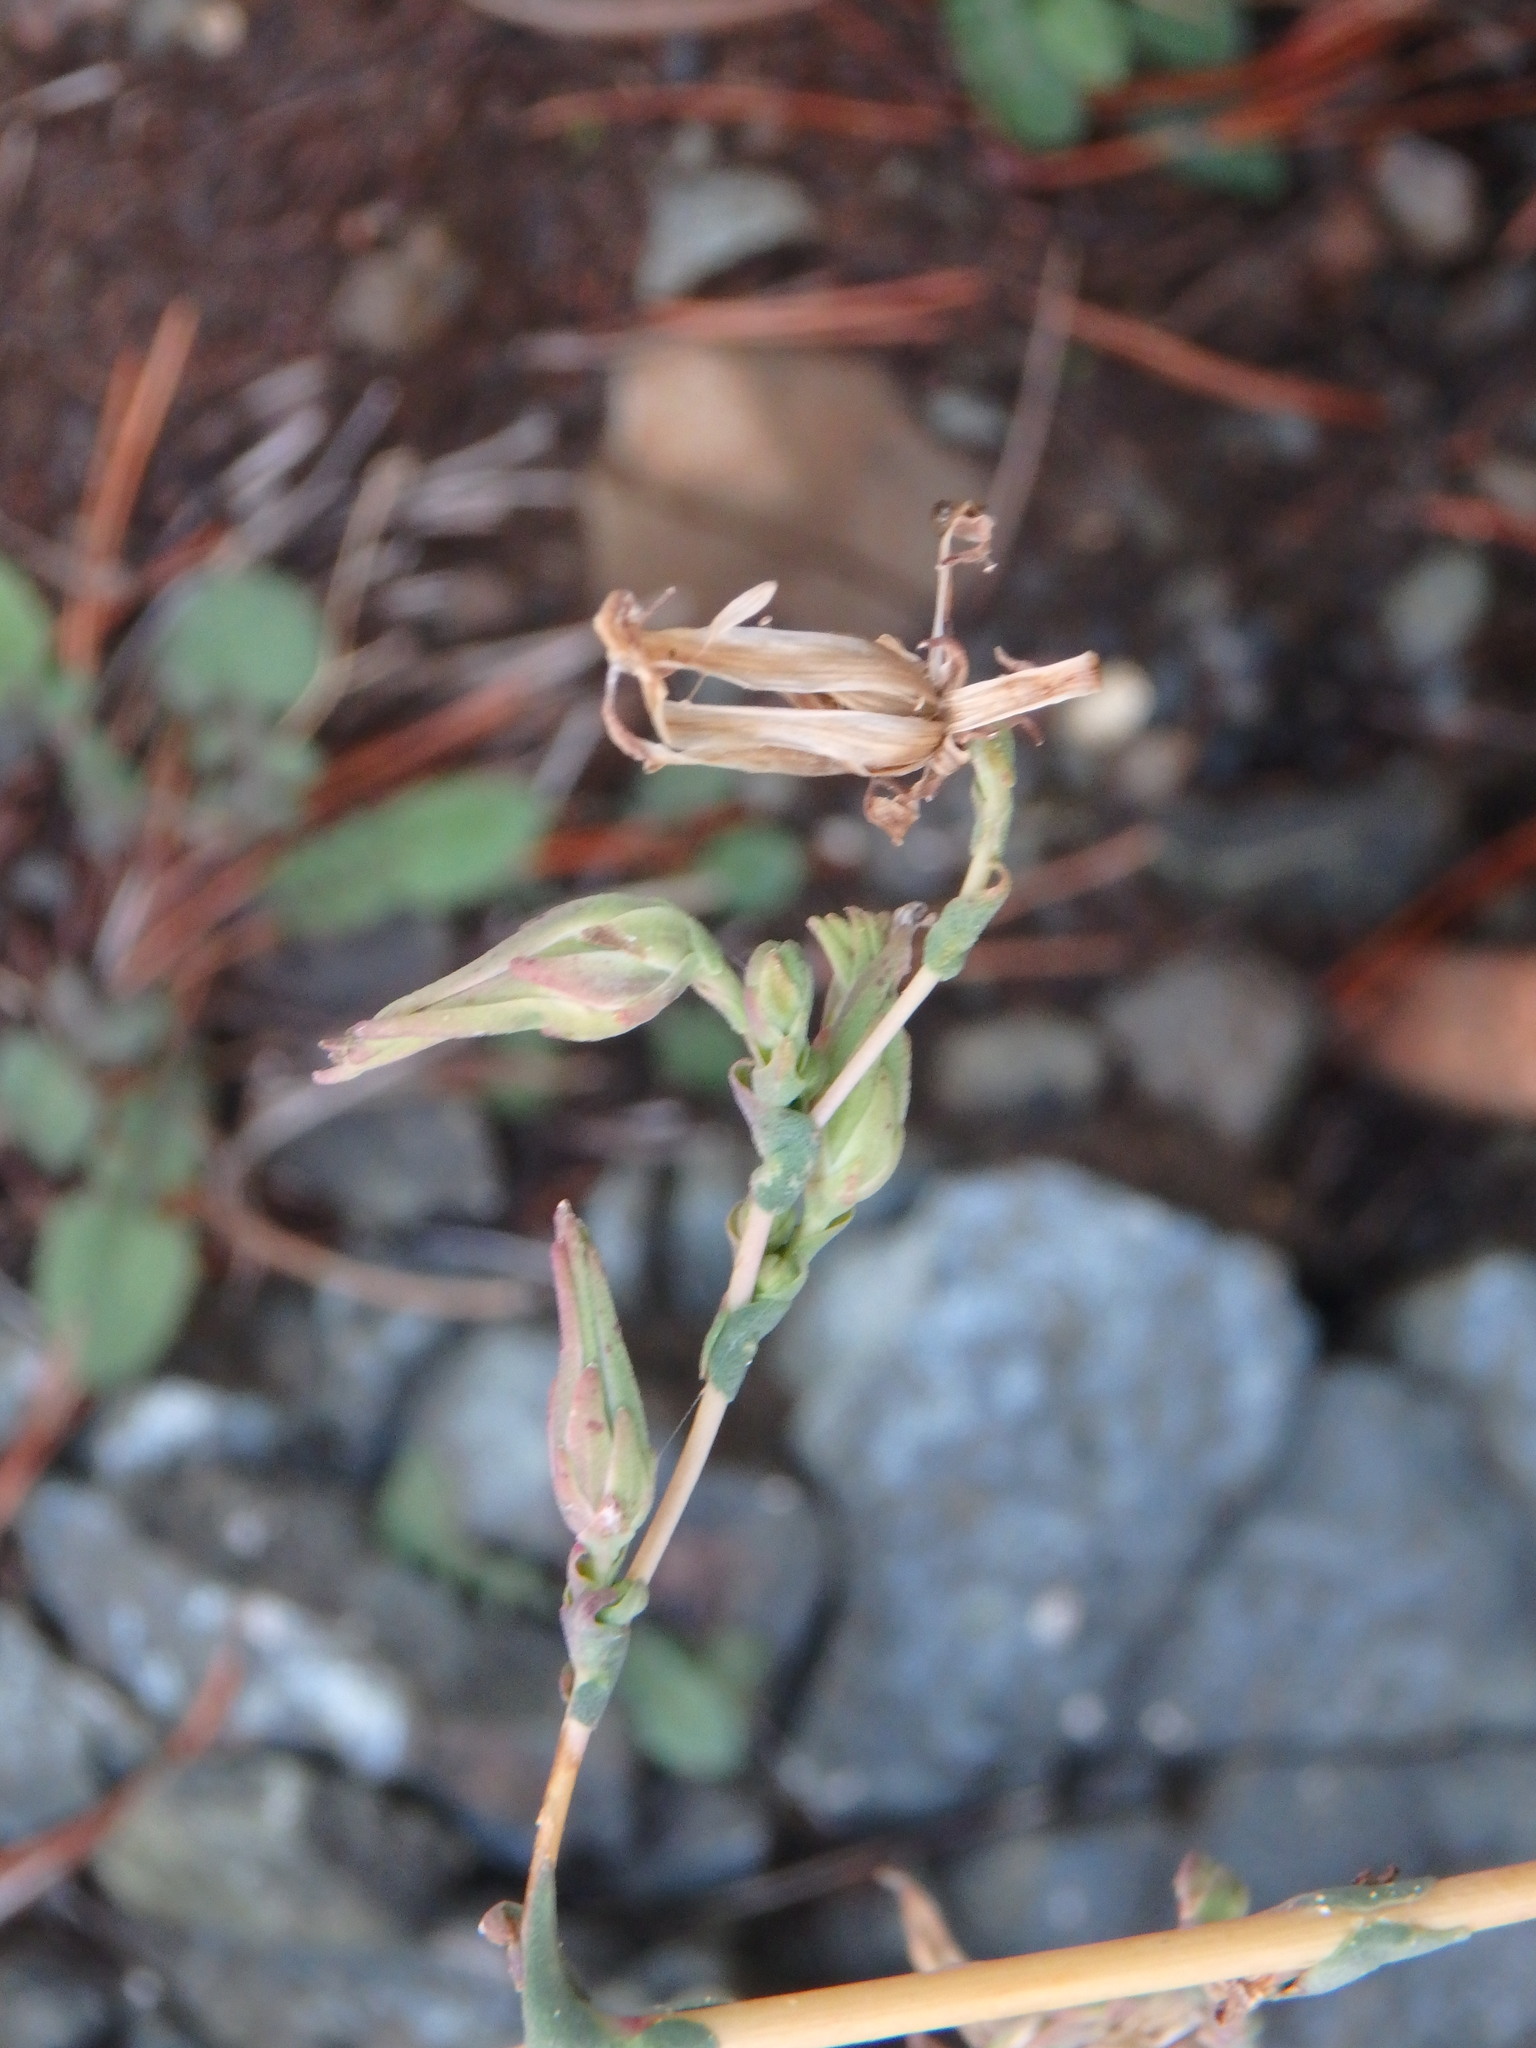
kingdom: Plantae
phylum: Tracheophyta
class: Magnoliopsida
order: Asterales
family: Asteraceae
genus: Lactuca
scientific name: Lactuca serriola
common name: Prickly lettuce
